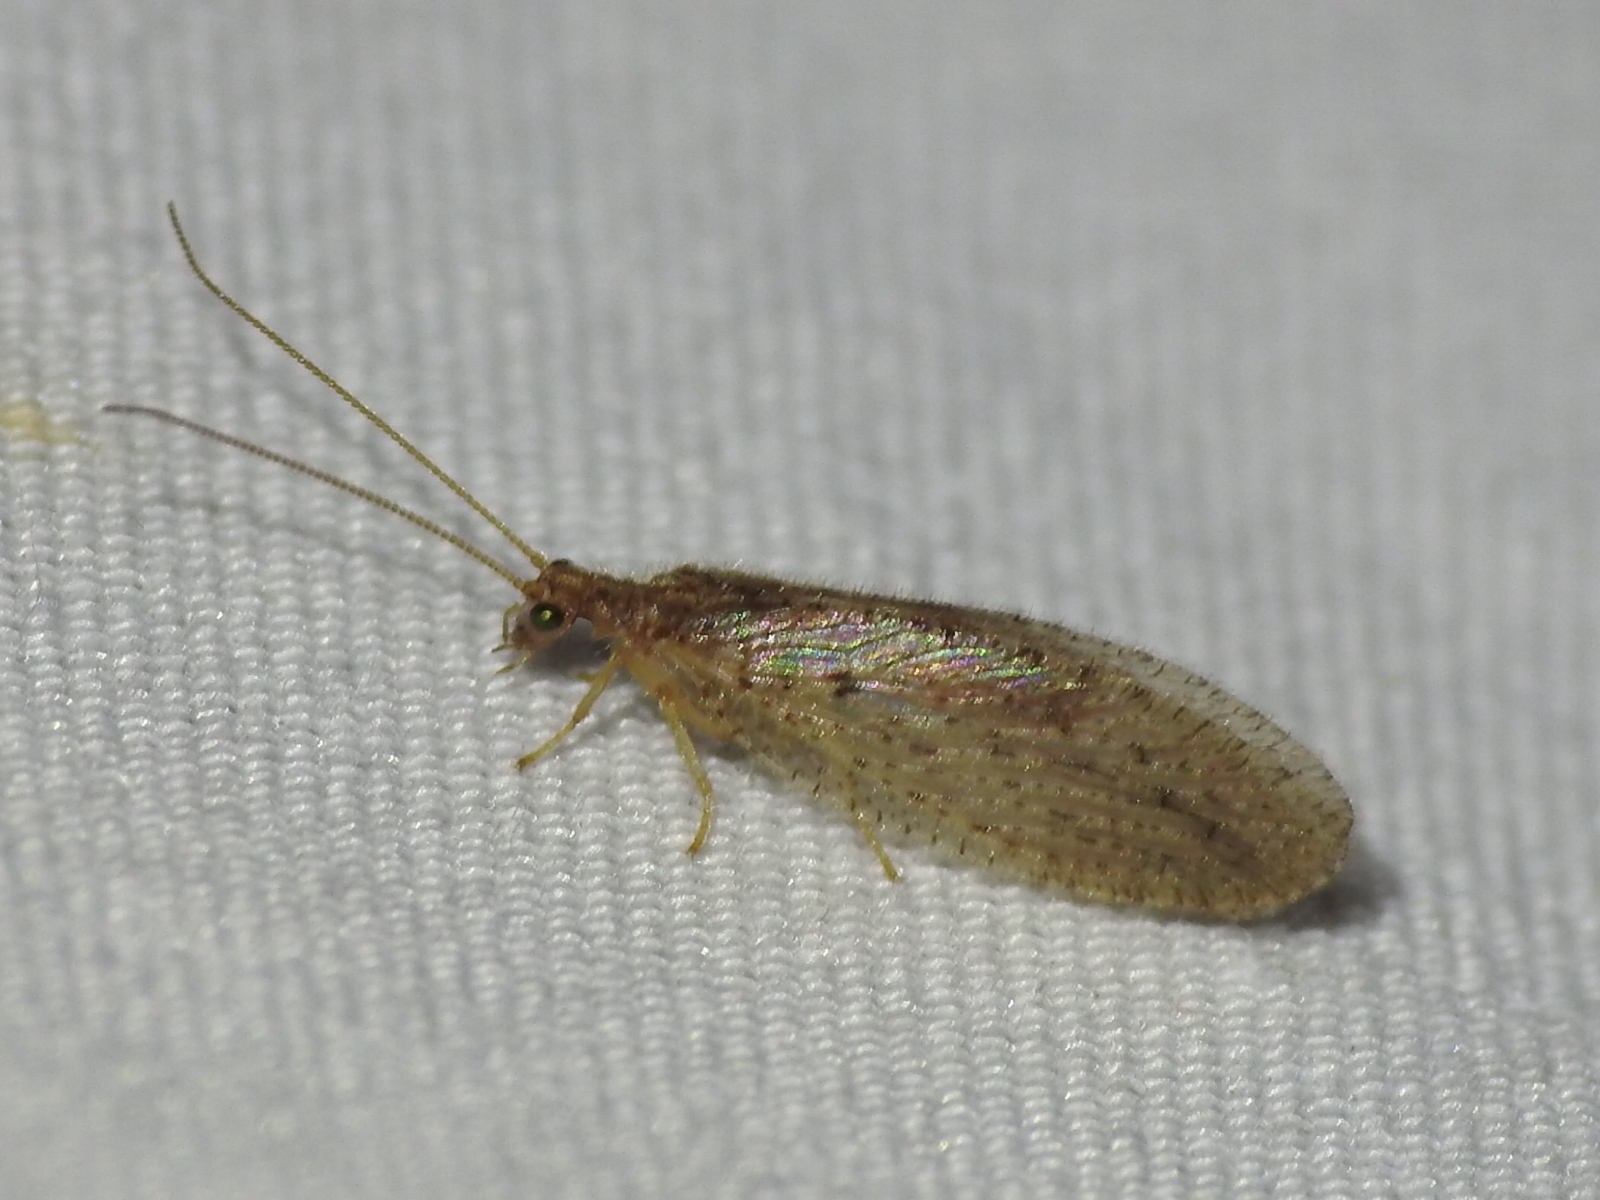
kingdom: Animalia
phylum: Arthropoda
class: Insecta
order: Neuroptera
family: Hemerobiidae
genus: Micromus
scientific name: Micromus subanticus
